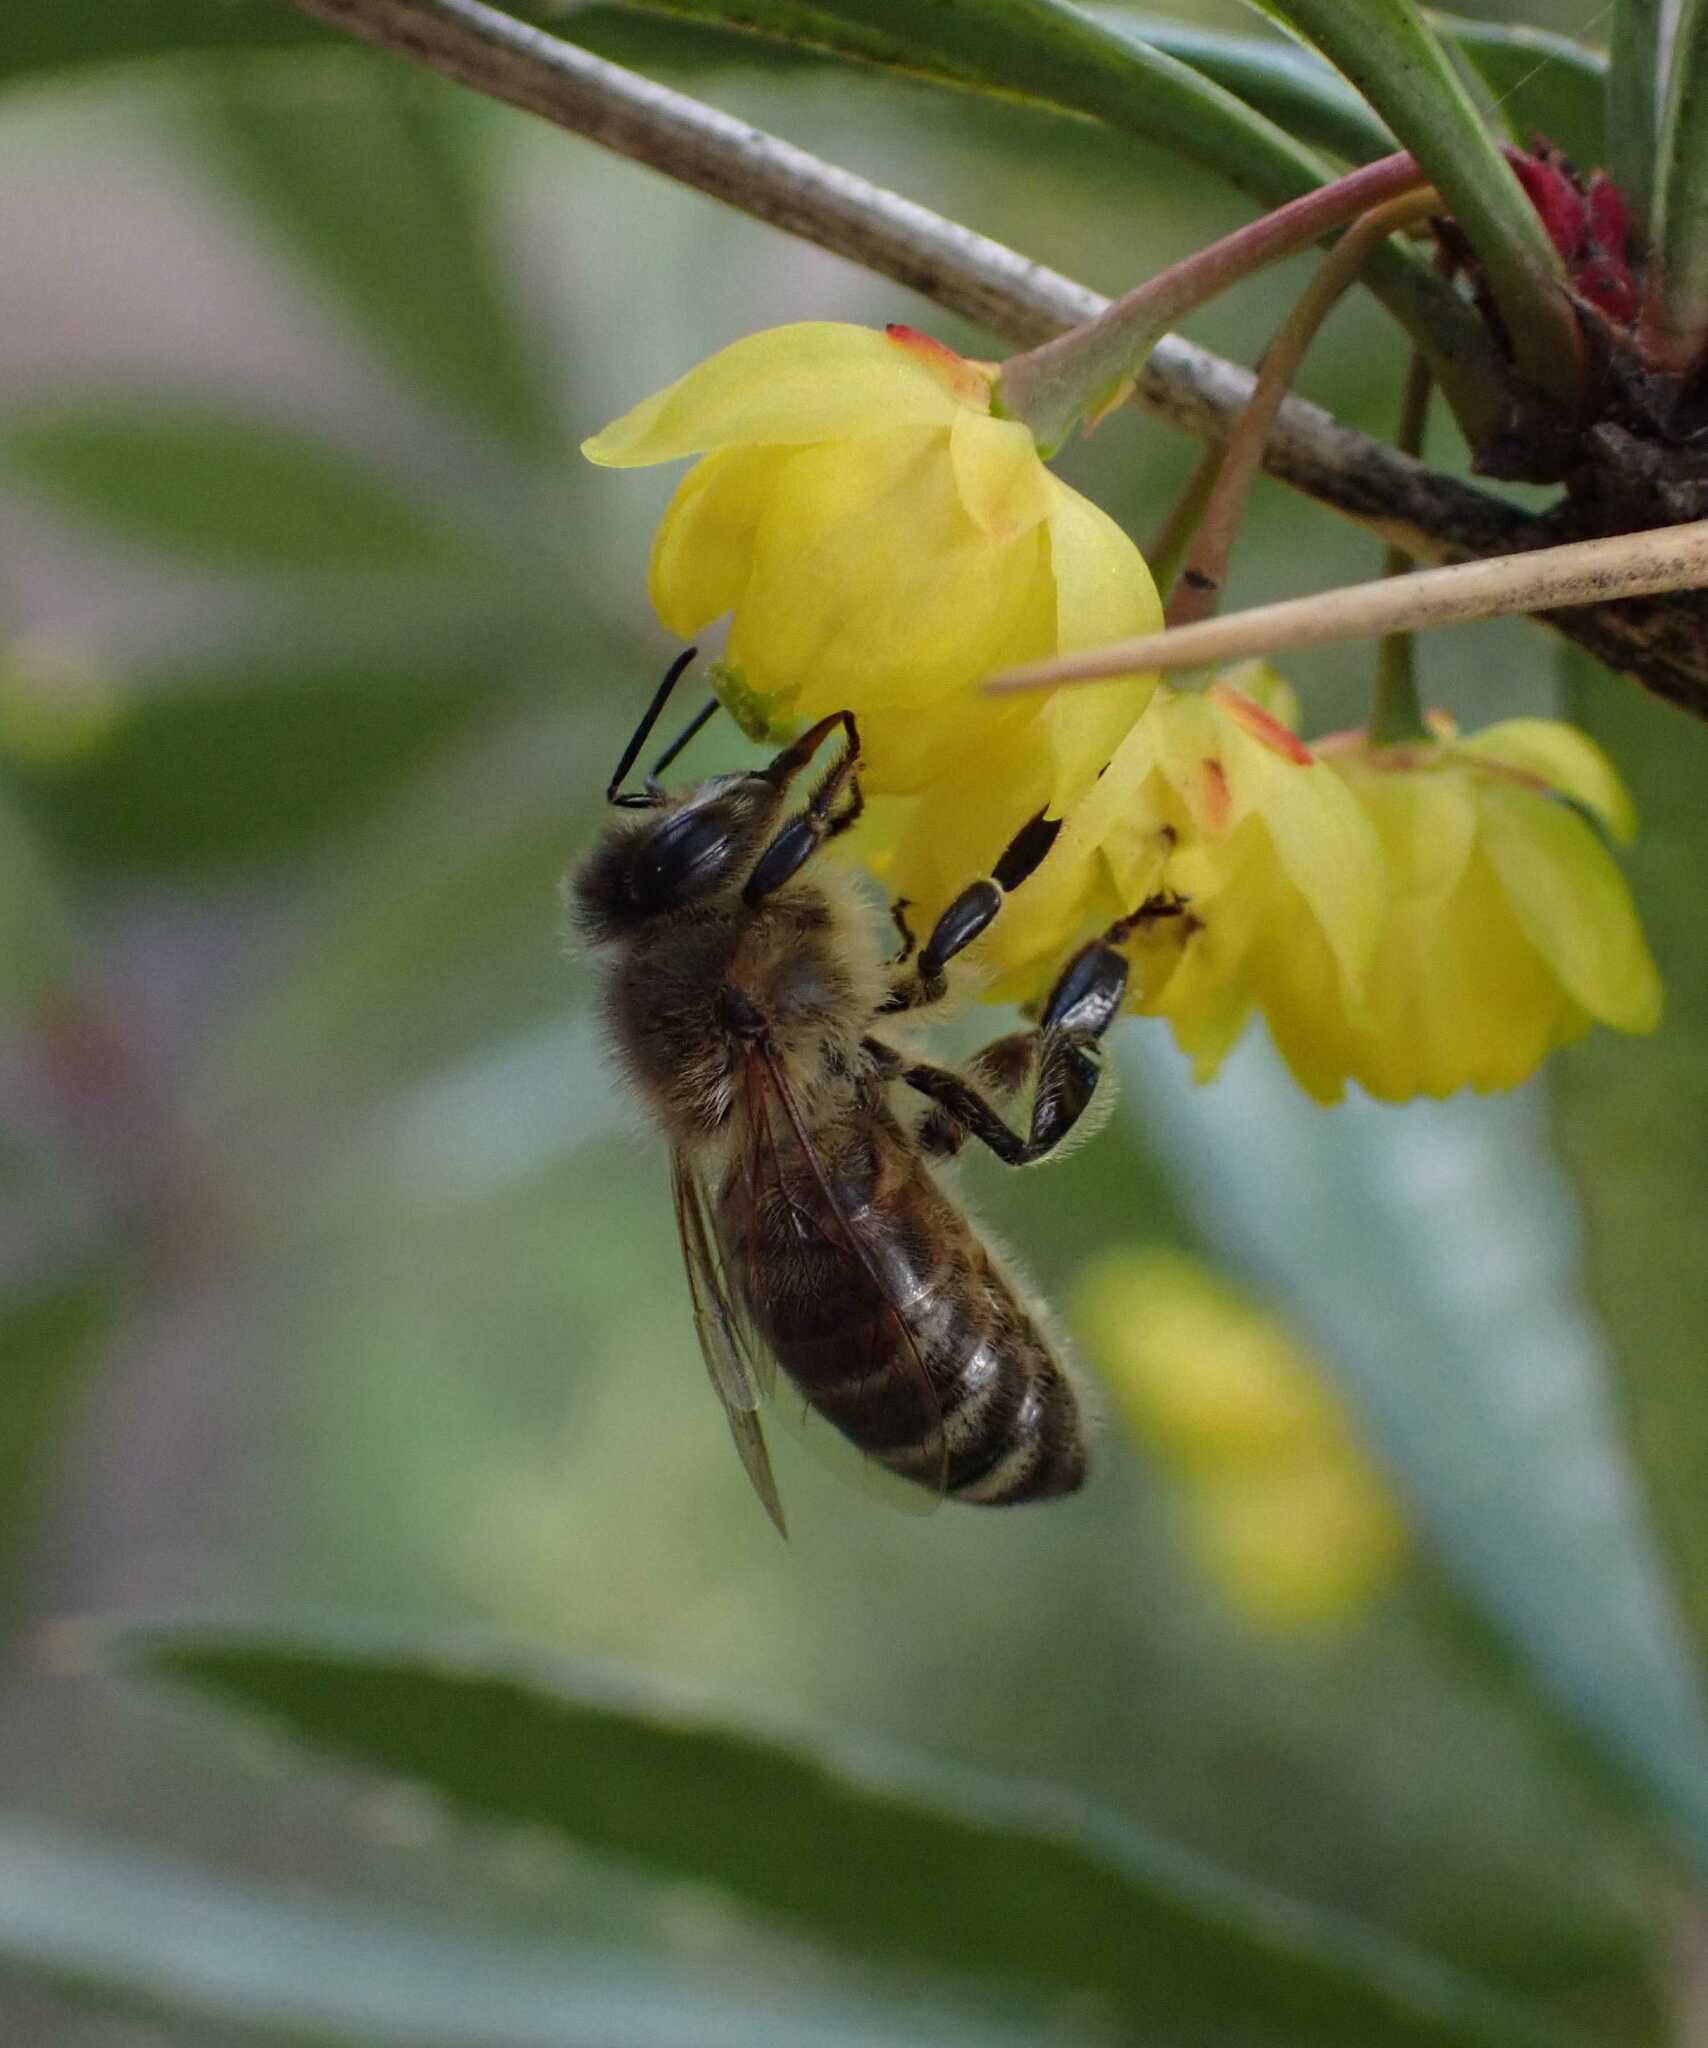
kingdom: Animalia
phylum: Arthropoda
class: Insecta
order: Hymenoptera
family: Apidae
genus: Apis
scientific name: Apis mellifera
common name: Honey bee
